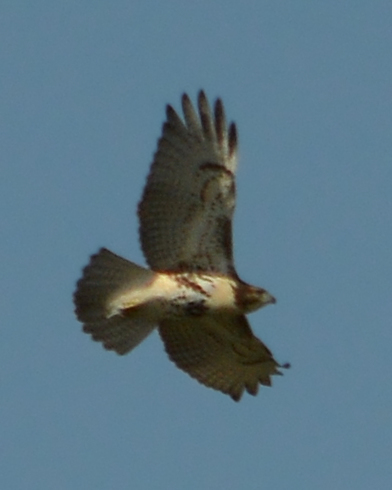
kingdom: Animalia
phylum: Chordata
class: Aves
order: Accipitriformes
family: Accipitridae
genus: Buteo
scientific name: Buteo jamaicensis
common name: Red-tailed hawk
